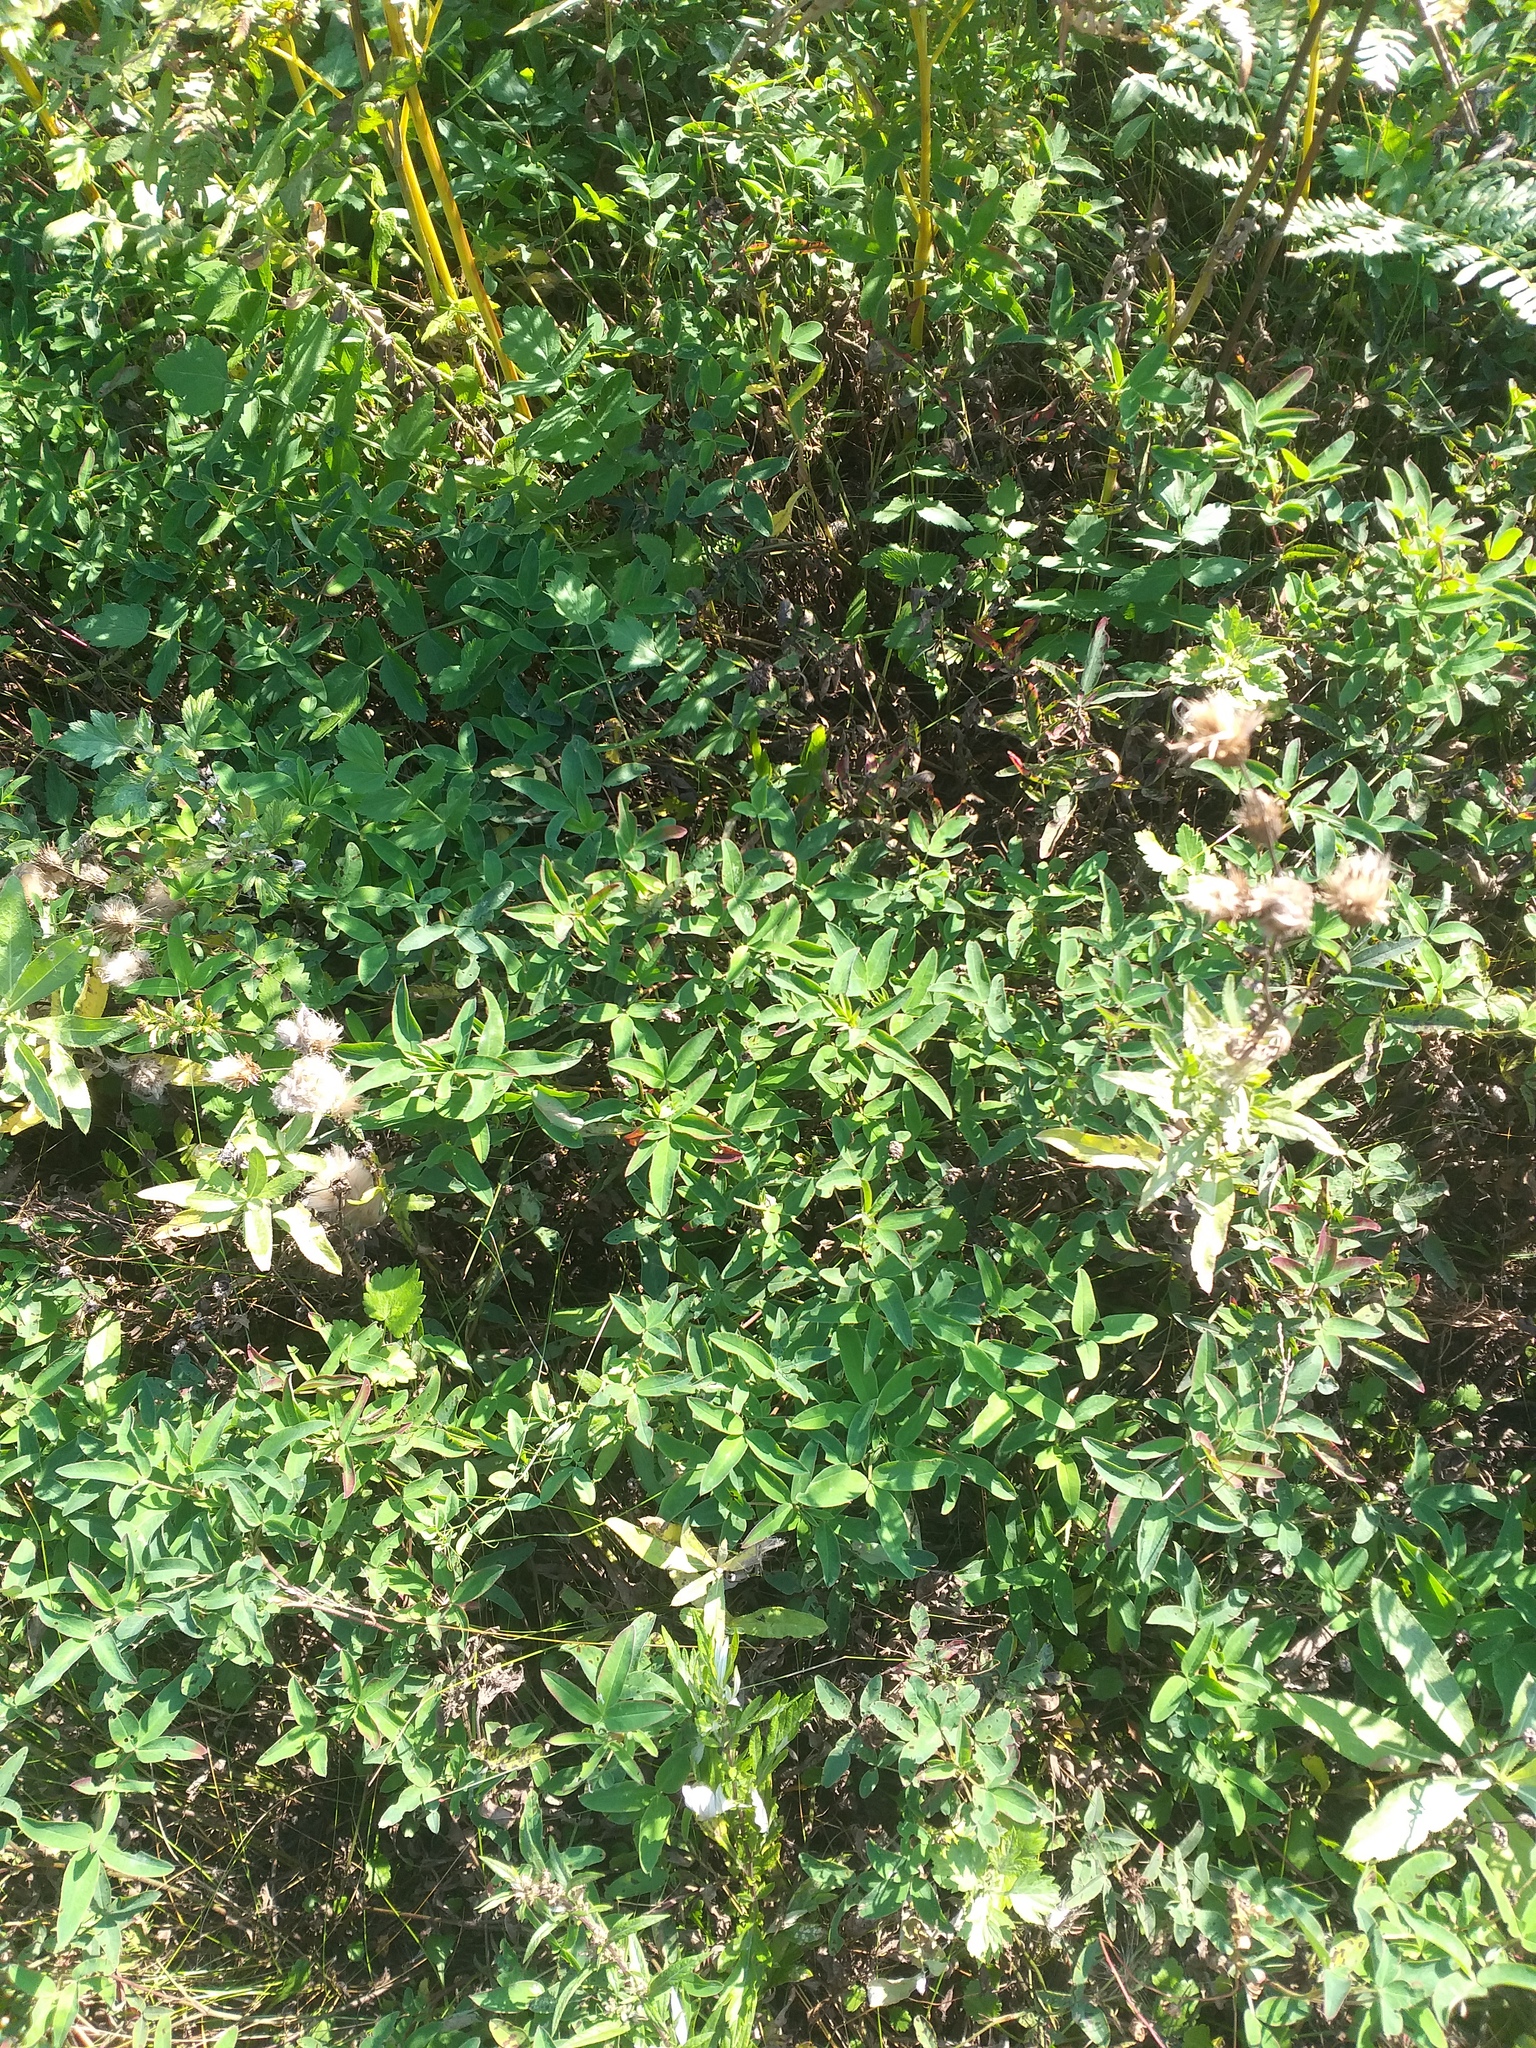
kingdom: Plantae
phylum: Tracheophyta
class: Magnoliopsida
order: Fabales
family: Fabaceae
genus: Trifolium
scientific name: Trifolium medium
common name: Zigzag clover
